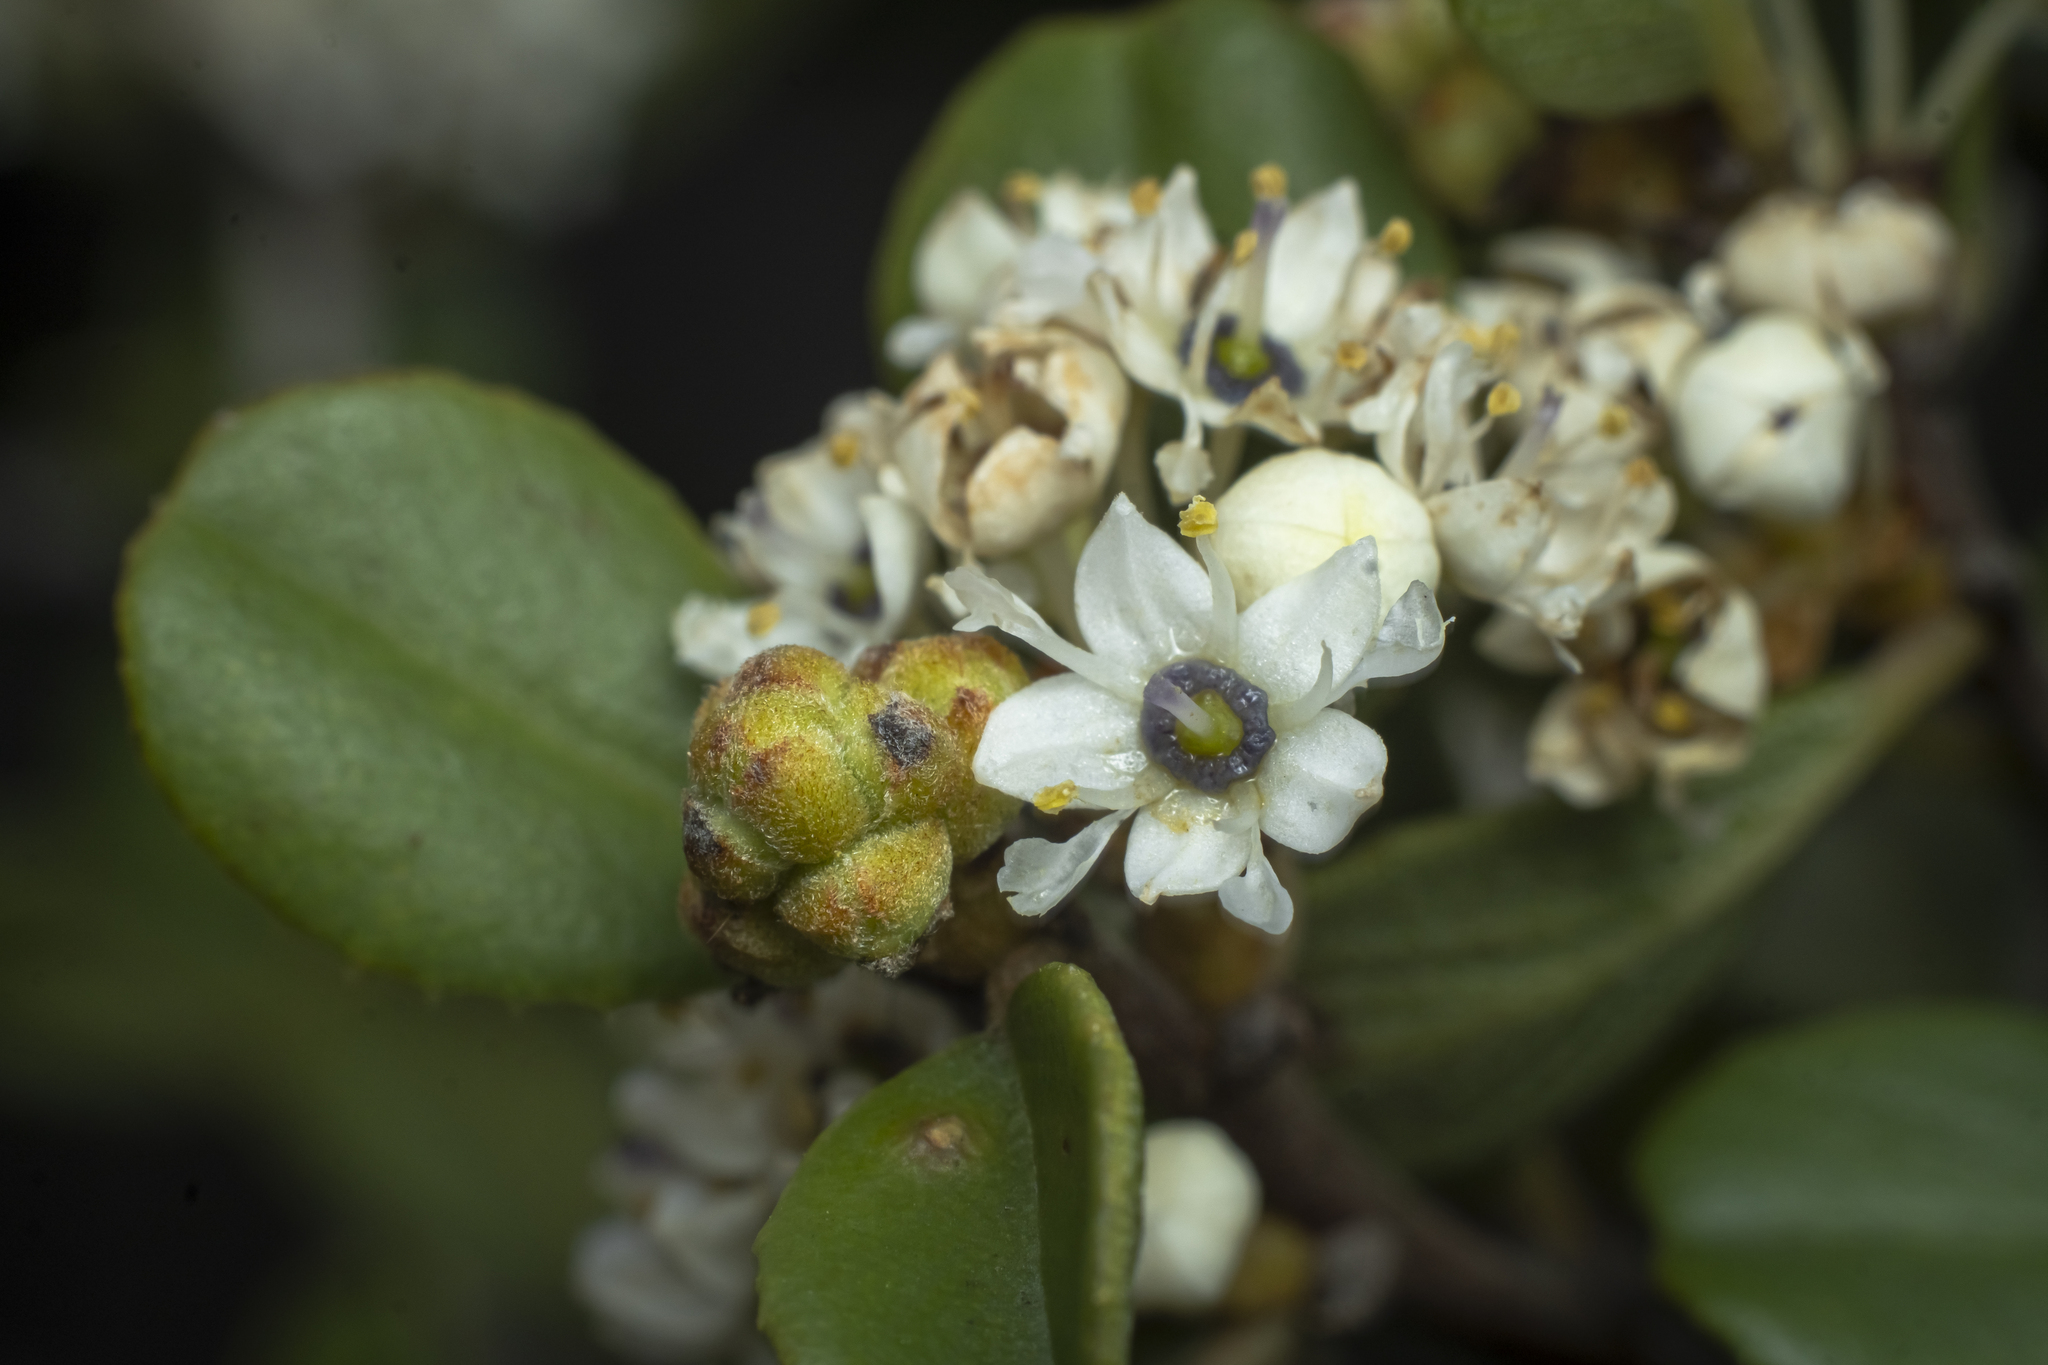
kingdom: Plantae
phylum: Tracheophyta
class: Magnoliopsida
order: Rosales
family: Rhamnaceae
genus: Ceanothus
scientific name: Ceanothus verrucosus
